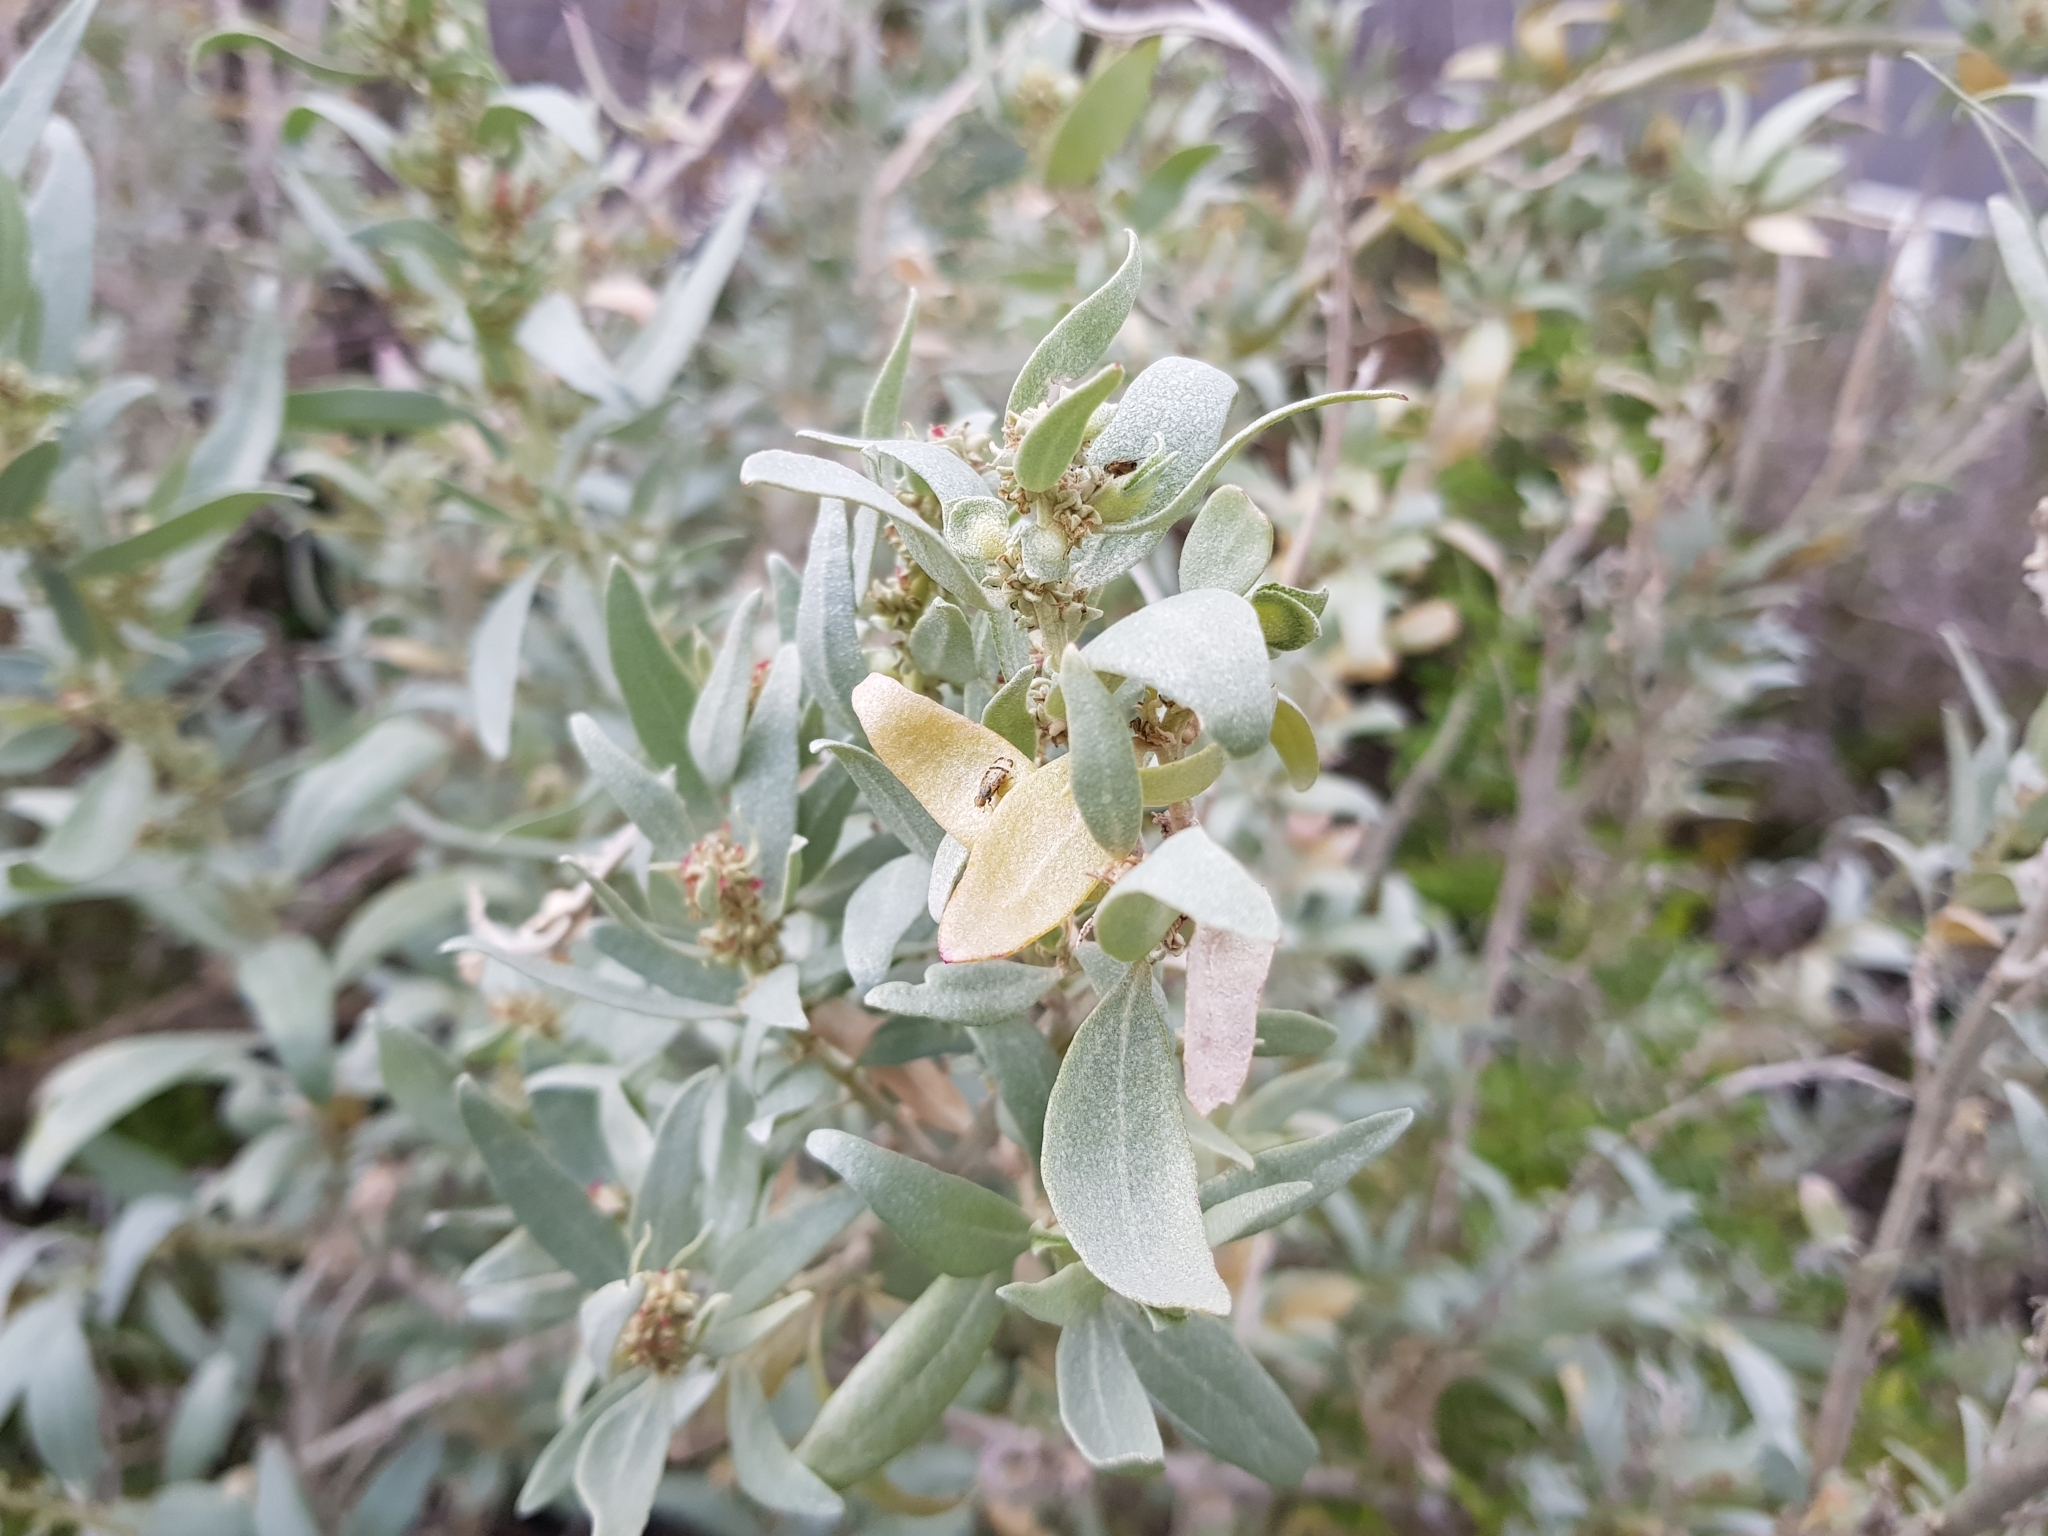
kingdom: Animalia
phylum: Arthropoda
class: Insecta
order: Diptera
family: Tephritidae
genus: Sphenella
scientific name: Sphenella ruficeps
